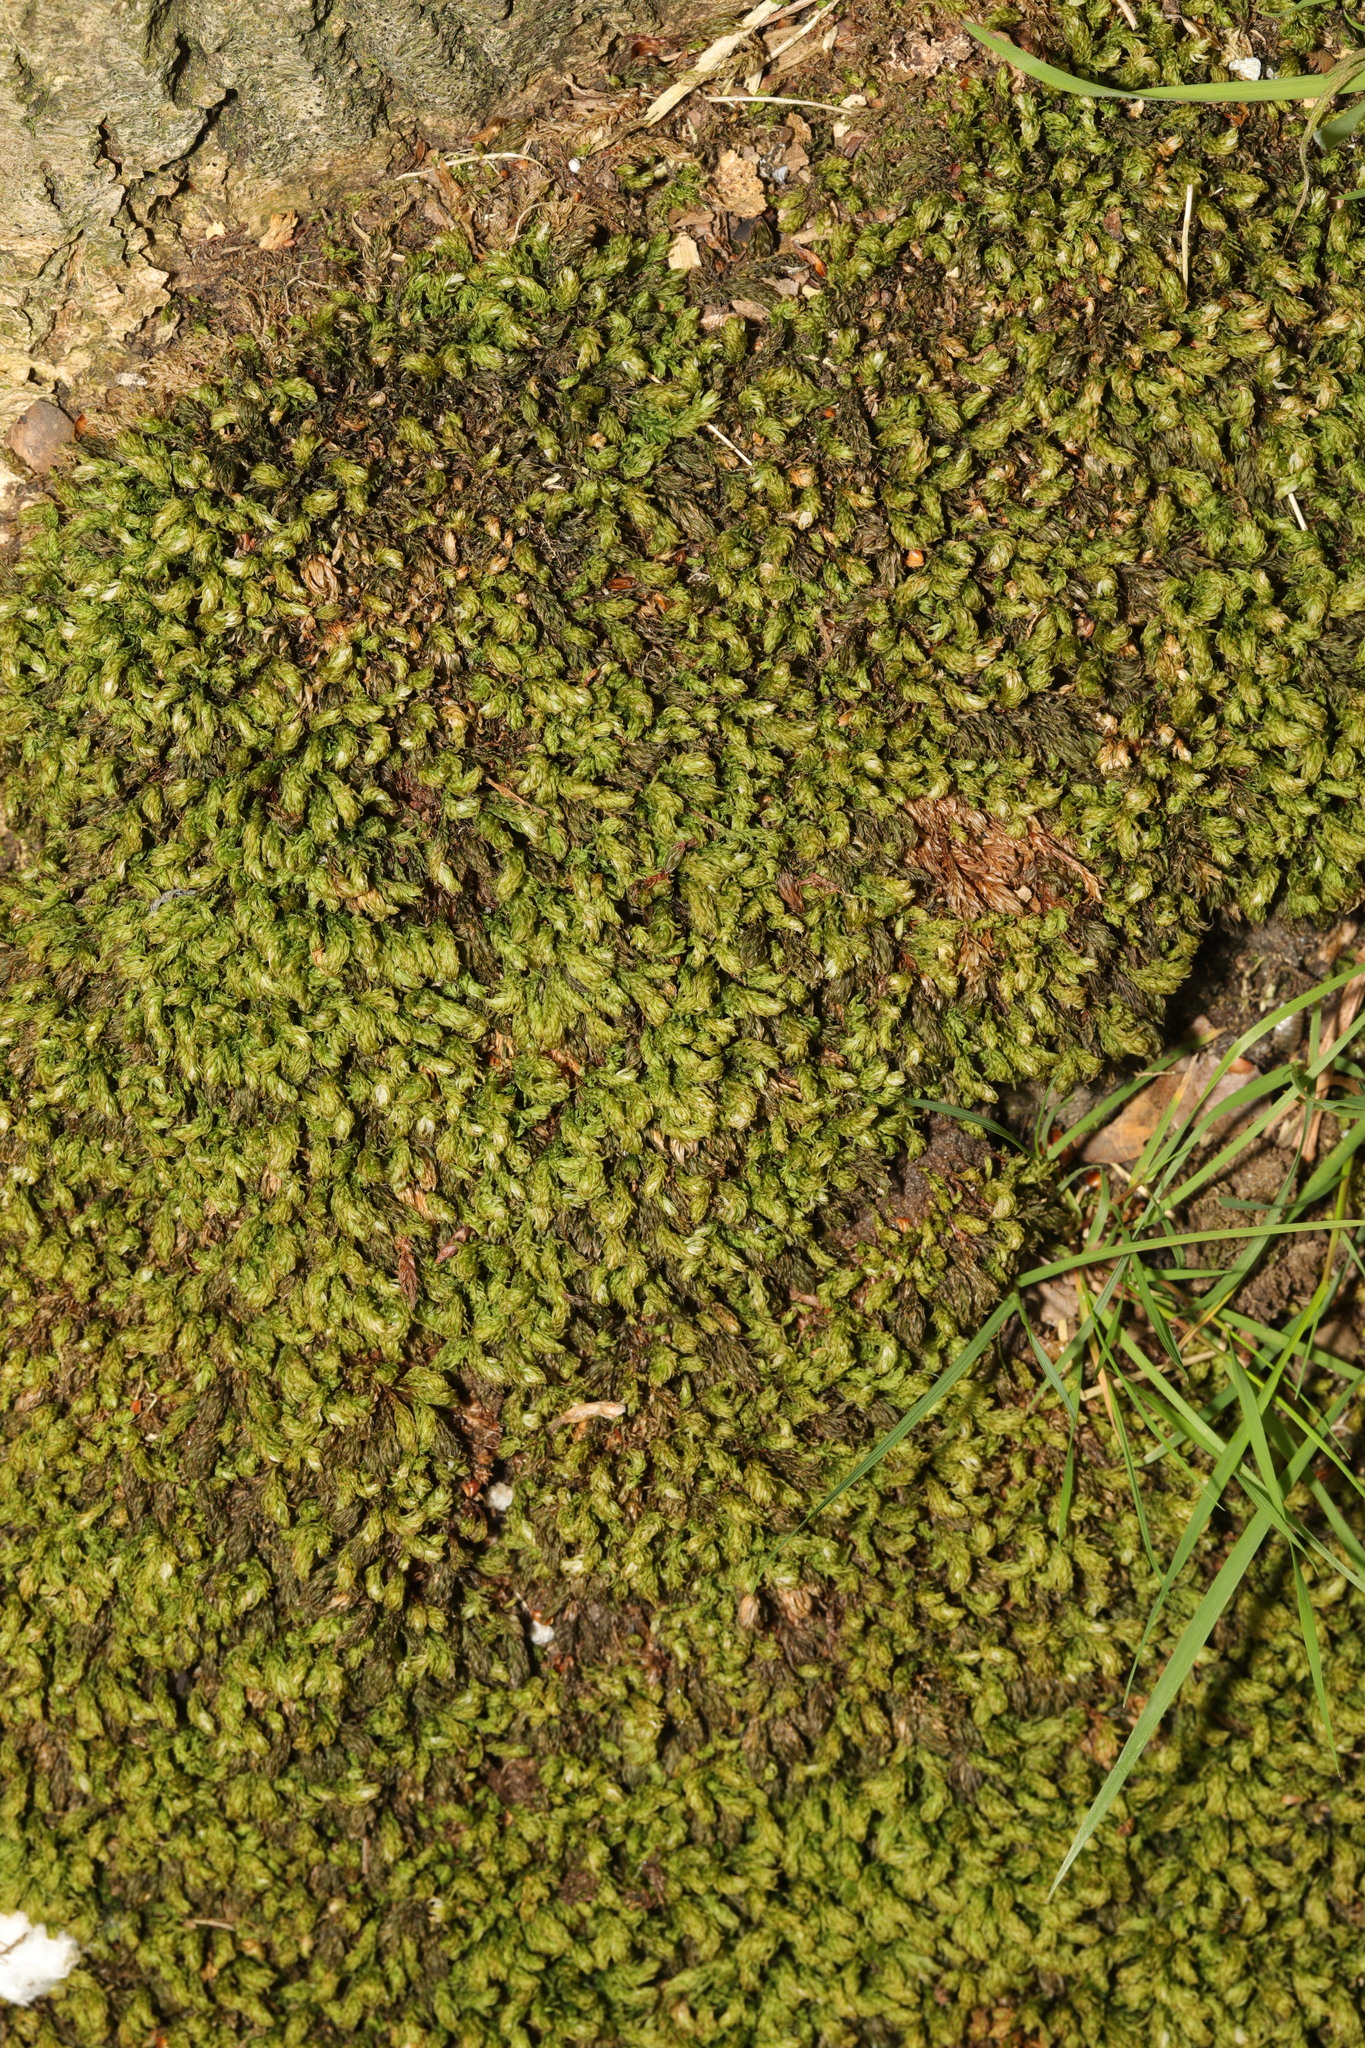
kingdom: Plantae
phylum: Bryophyta
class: Bryopsida
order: Bryales
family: Mniaceae
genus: Mnium
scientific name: Mnium hornum
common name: Swan's-neck leafy moss
